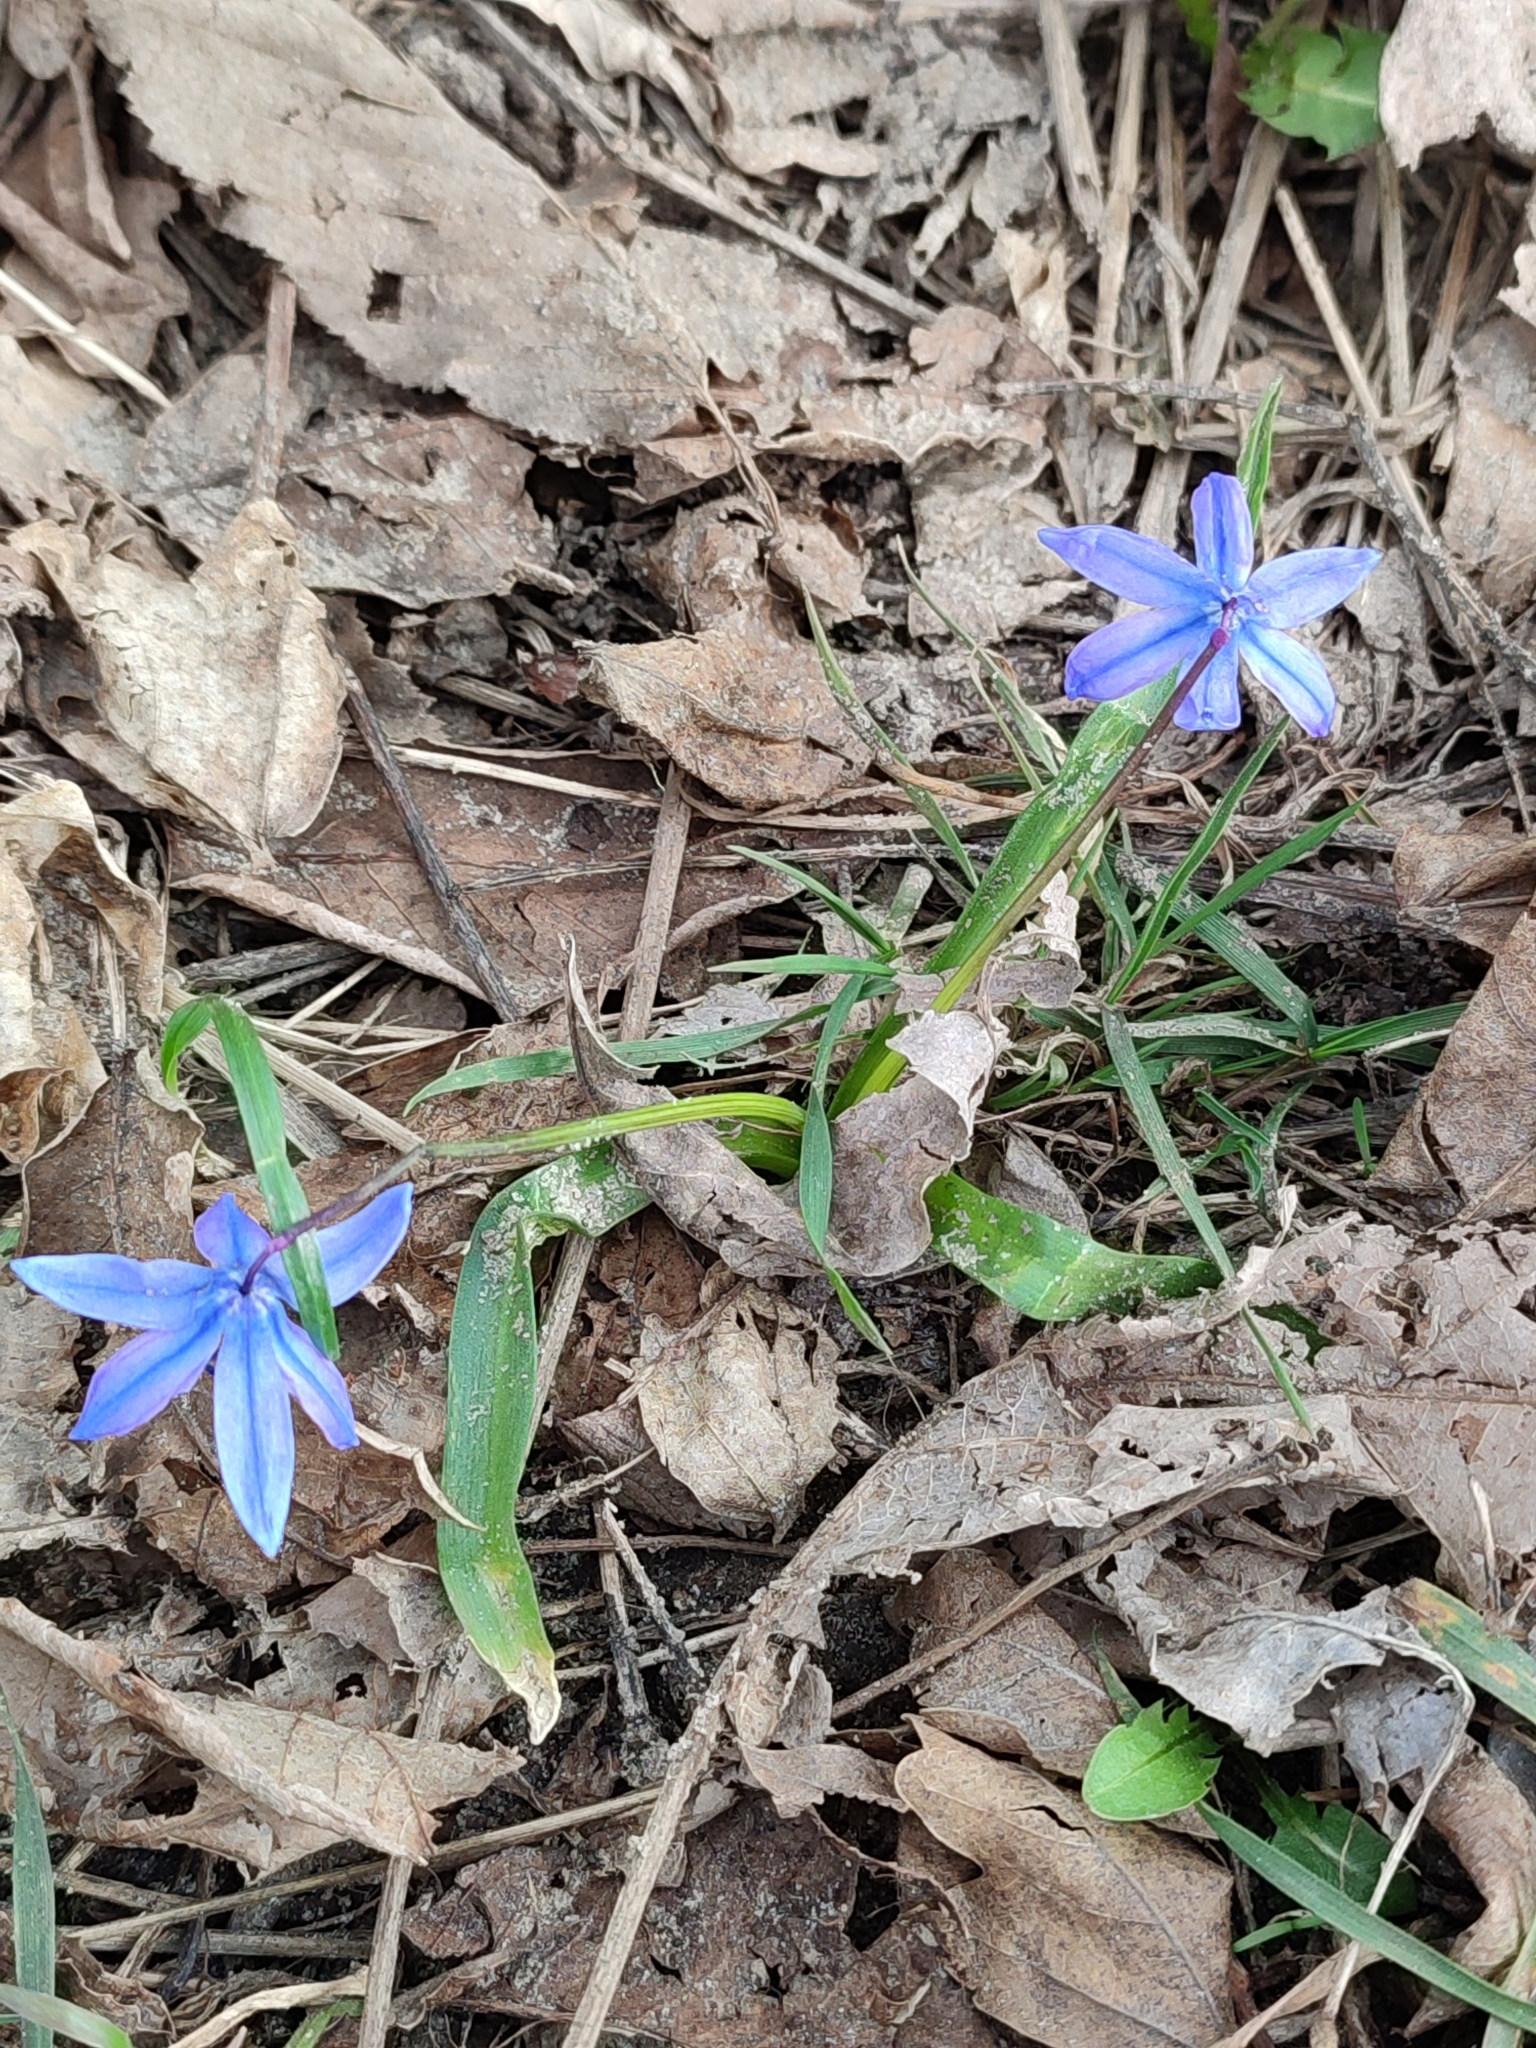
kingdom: Plantae
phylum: Tracheophyta
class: Liliopsida
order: Asparagales
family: Asparagaceae
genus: Scilla
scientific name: Scilla siberica
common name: Siberian squill
